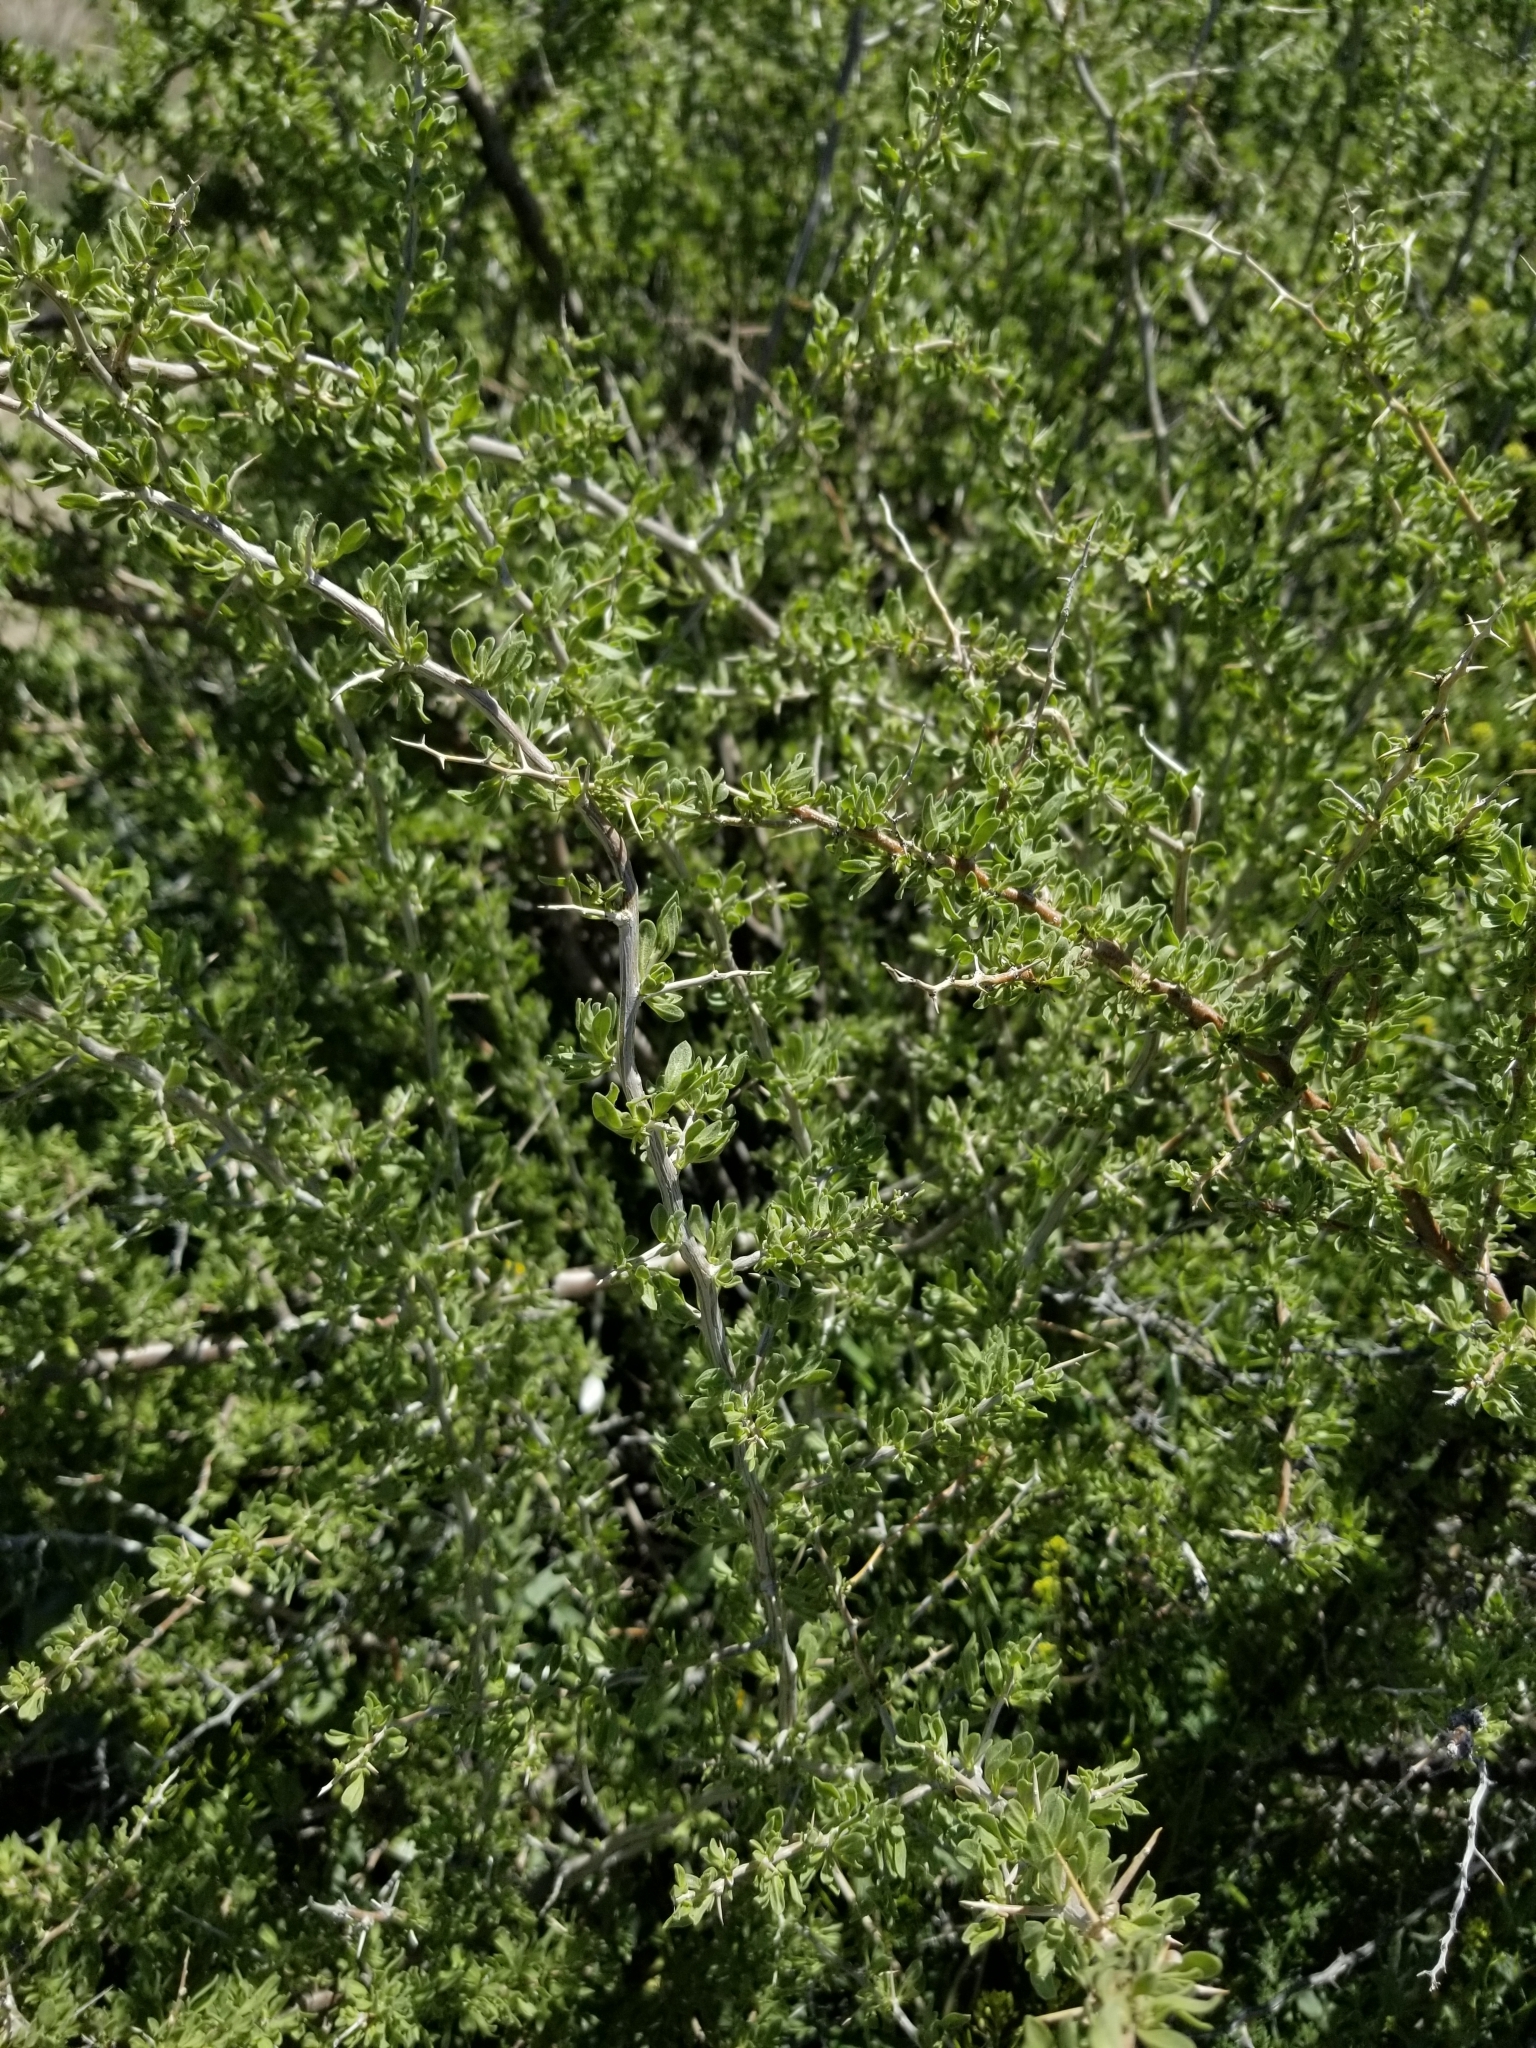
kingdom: Plantae
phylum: Tracheophyta
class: Magnoliopsida
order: Rosales
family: Rosaceae
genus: Prunus
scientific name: Prunus fasciculata
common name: Desert almond
